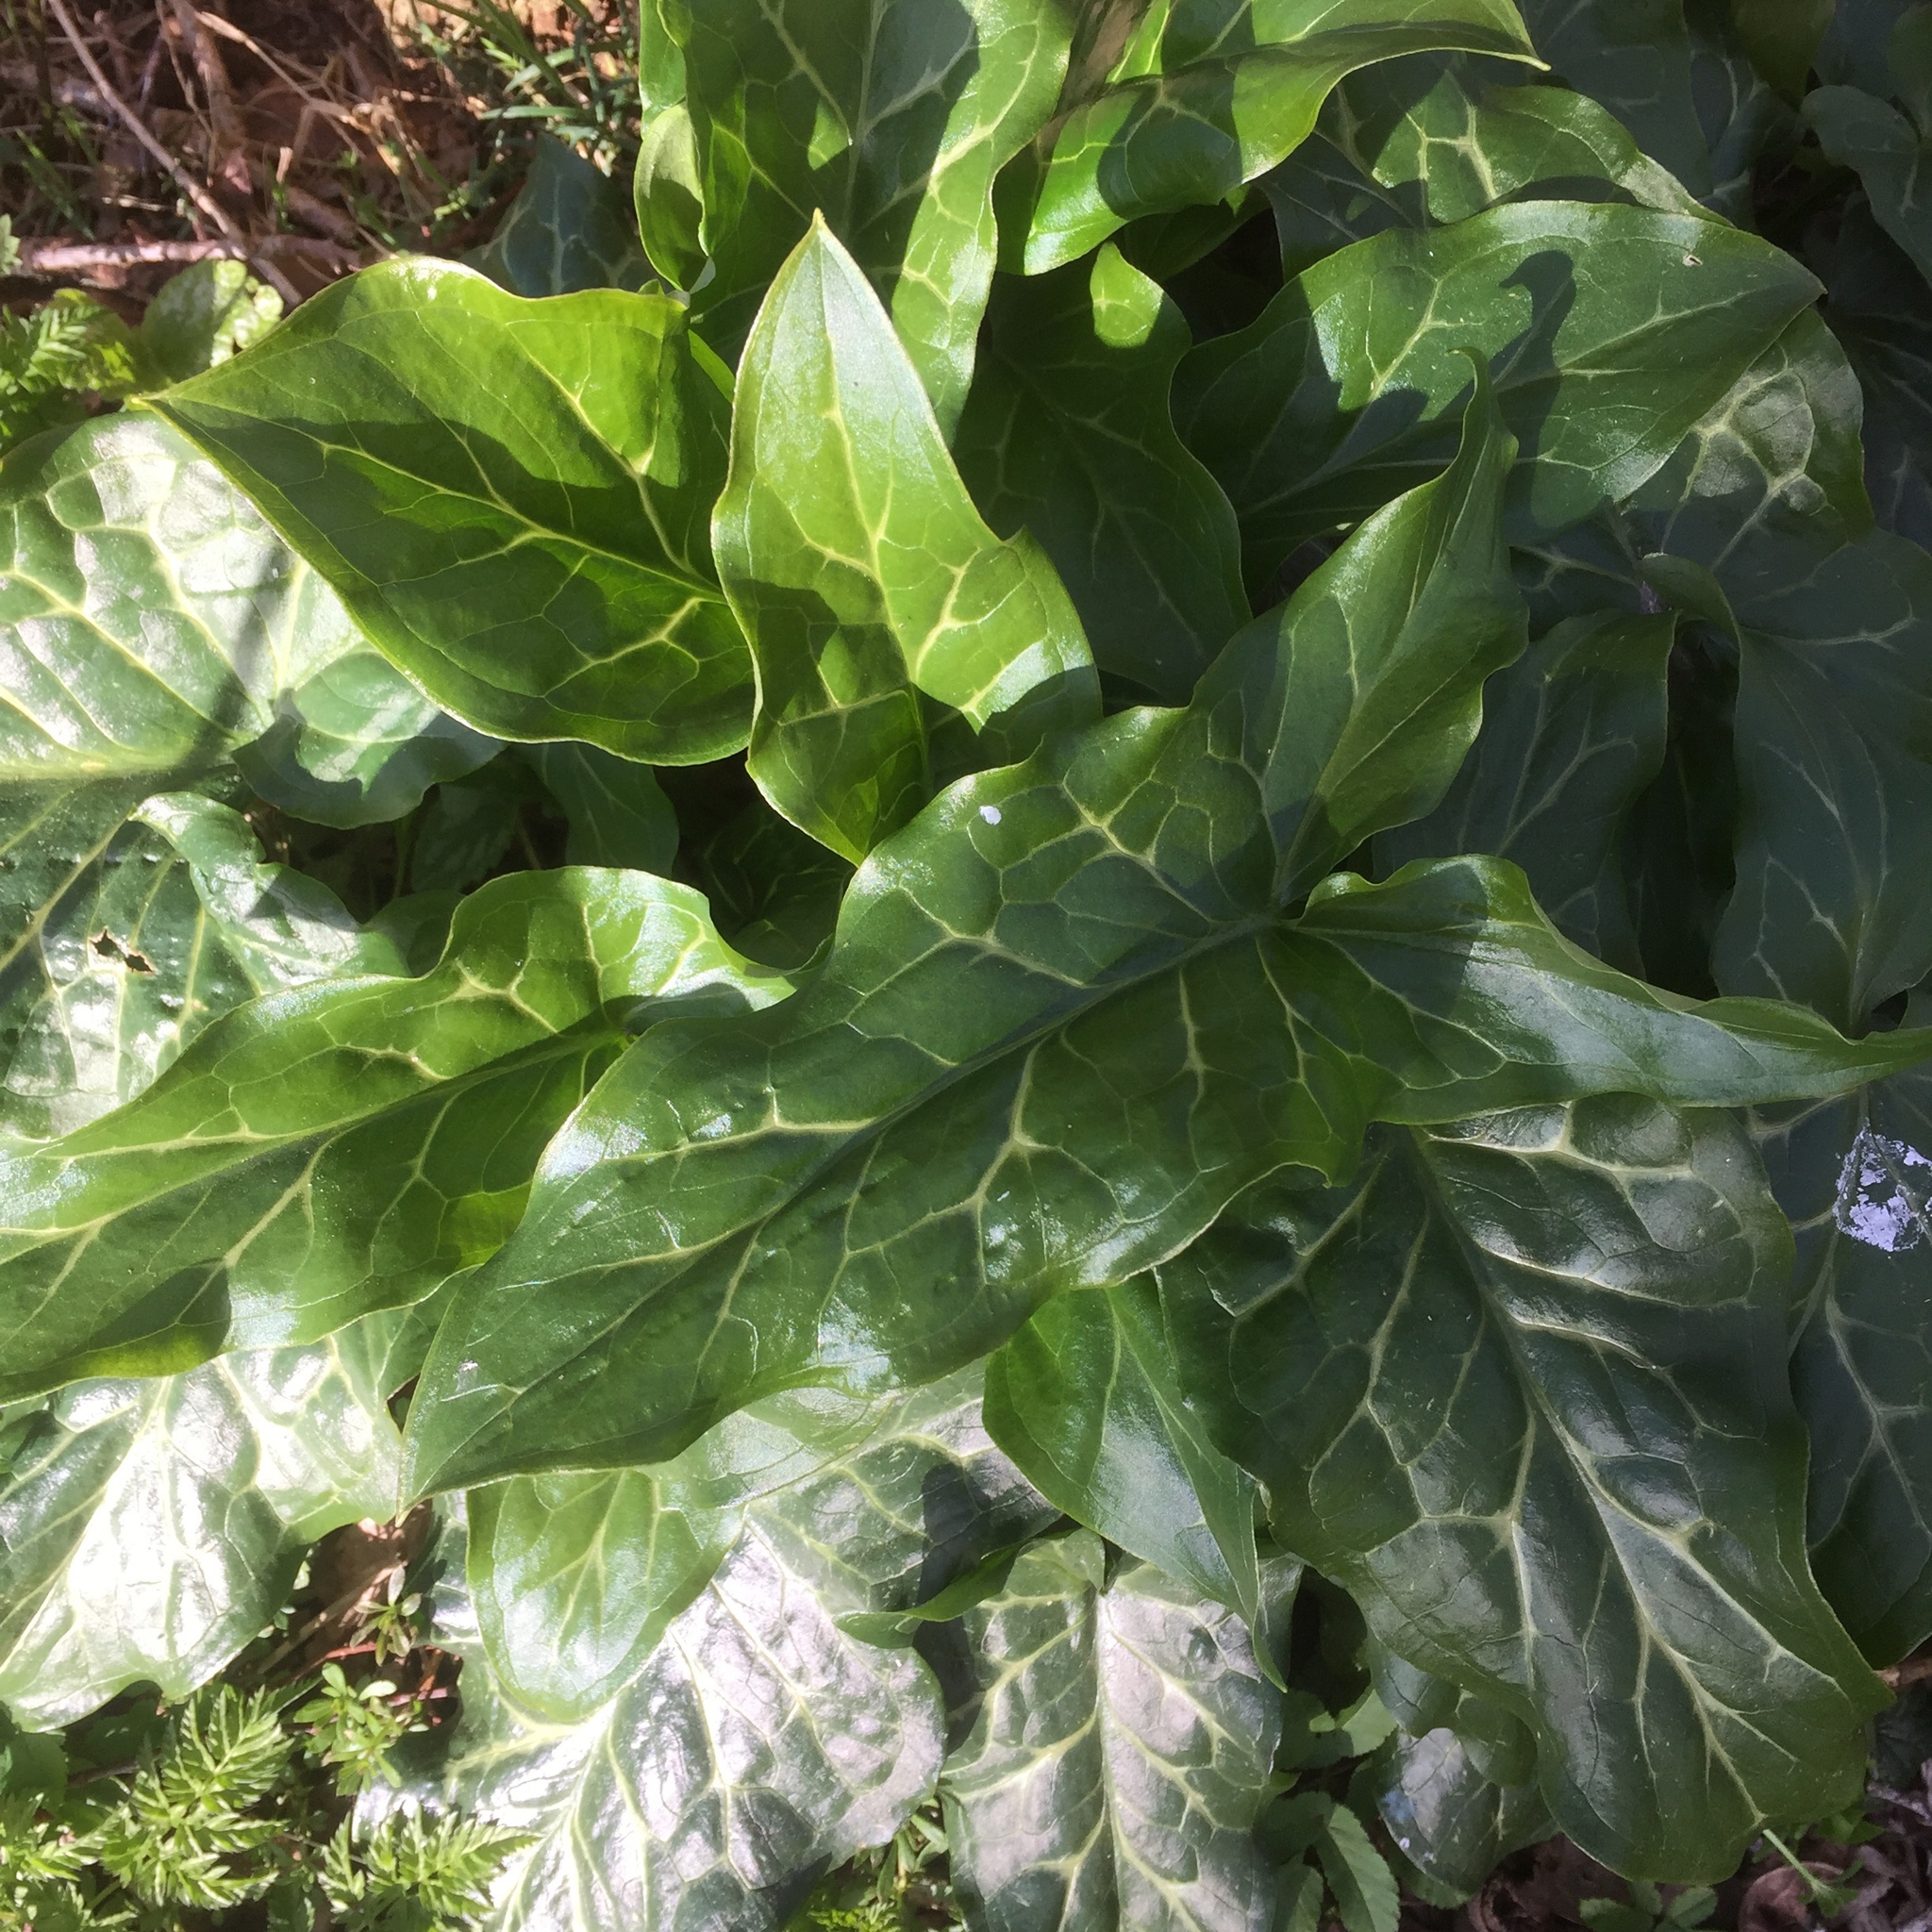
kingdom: Plantae
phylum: Tracheophyta
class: Liliopsida
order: Alismatales
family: Araceae
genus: Arum
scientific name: Arum italicum
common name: Italian lords-and-ladies
